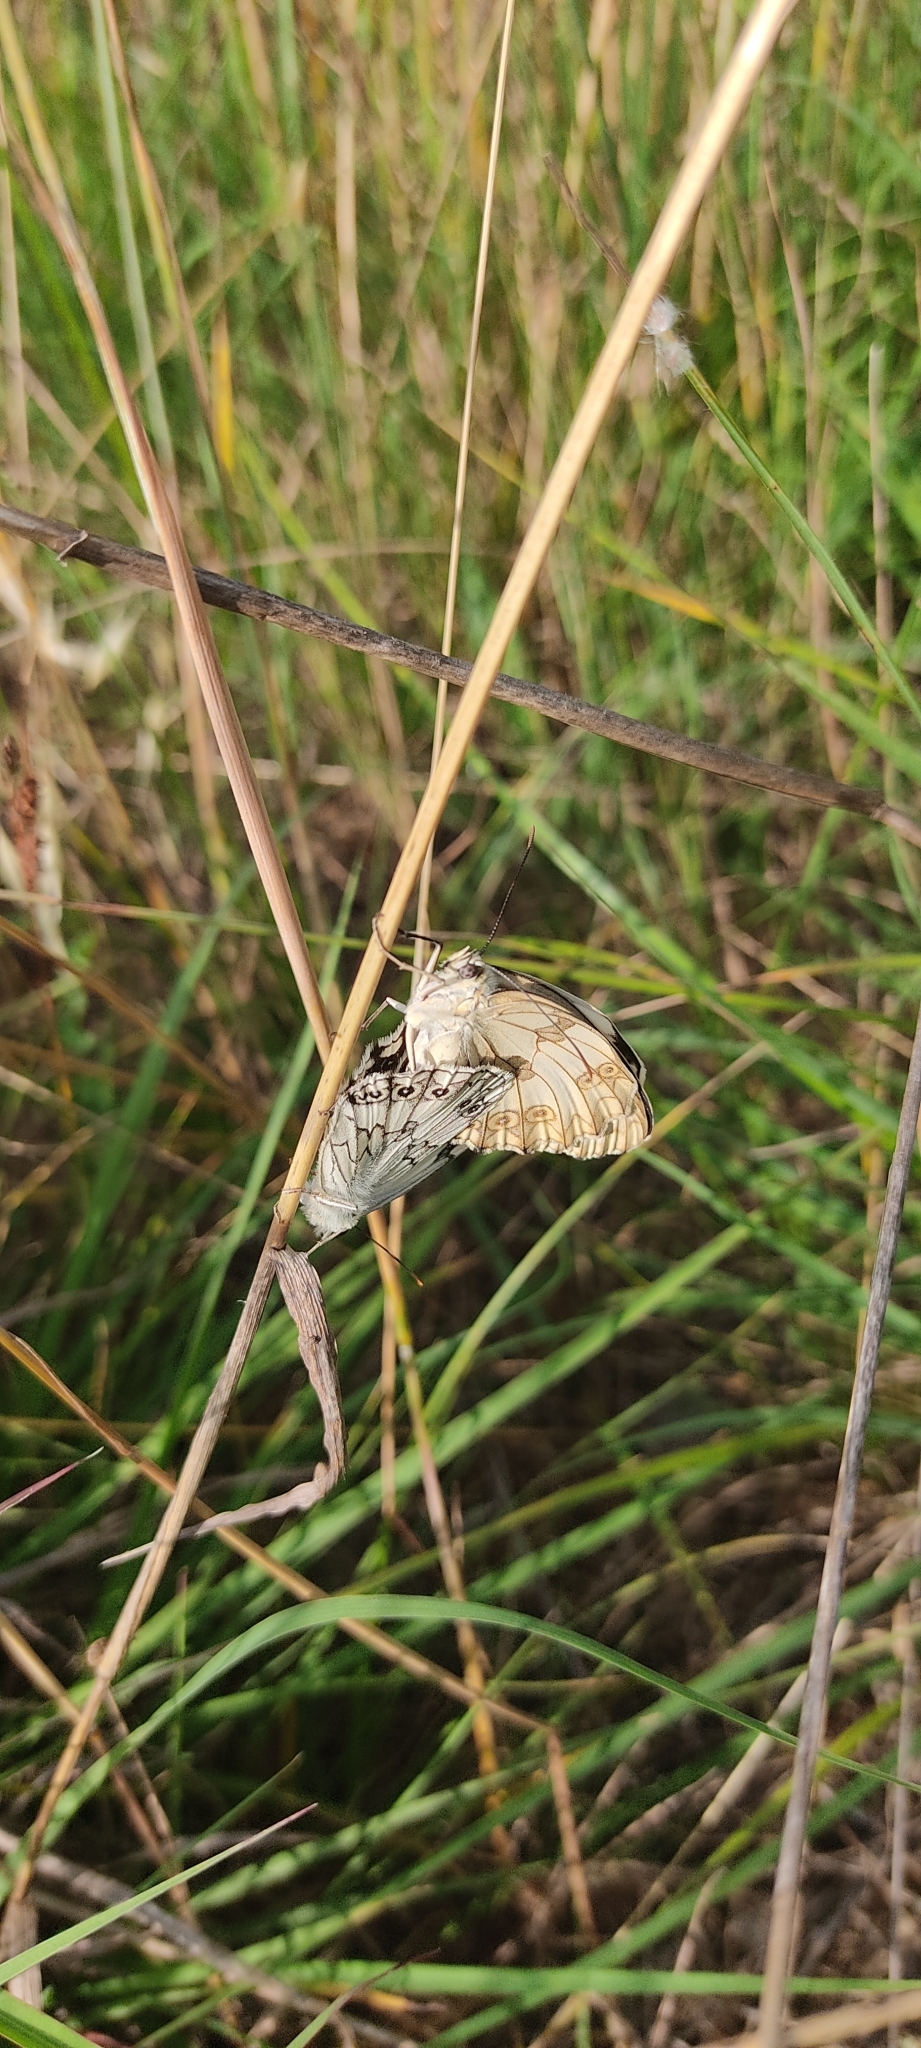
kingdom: Animalia
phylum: Arthropoda
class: Insecta
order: Lepidoptera
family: Nymphalidae
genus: Melanargia
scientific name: Melanargia lachesis
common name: Iberian marbled white
